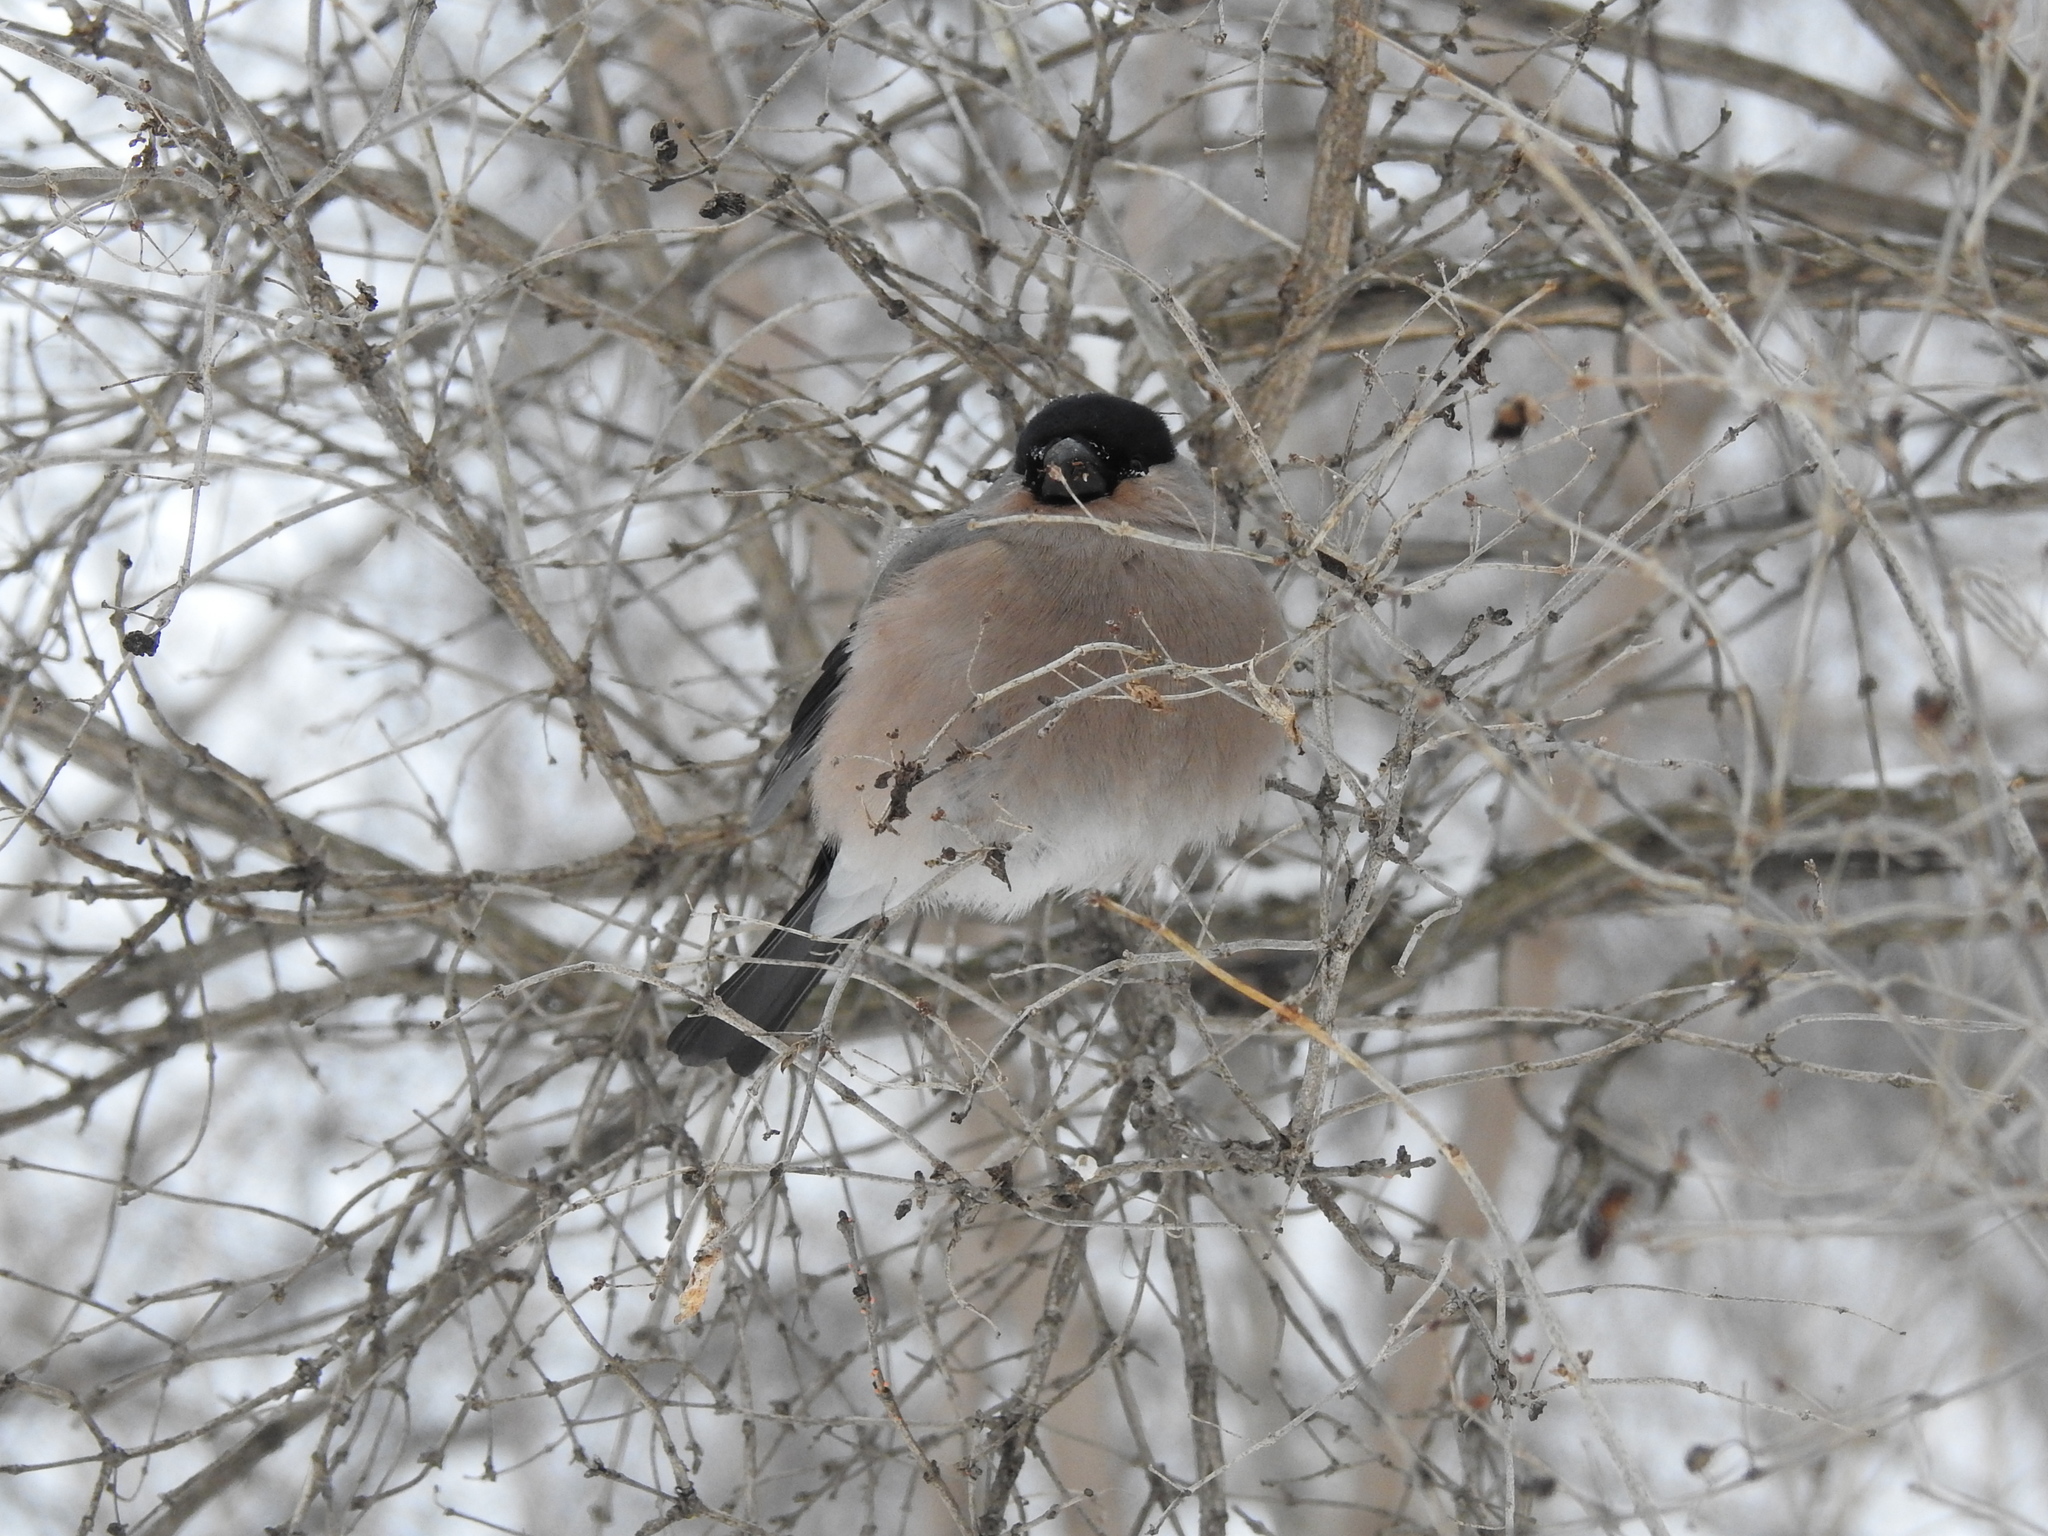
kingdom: Animalia
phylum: Chordata
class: Aves
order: Passeriformes
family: Fringillidae
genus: Pyrrhula
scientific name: Pyrrhula pyrrhula
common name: Eurasian bullfinch
